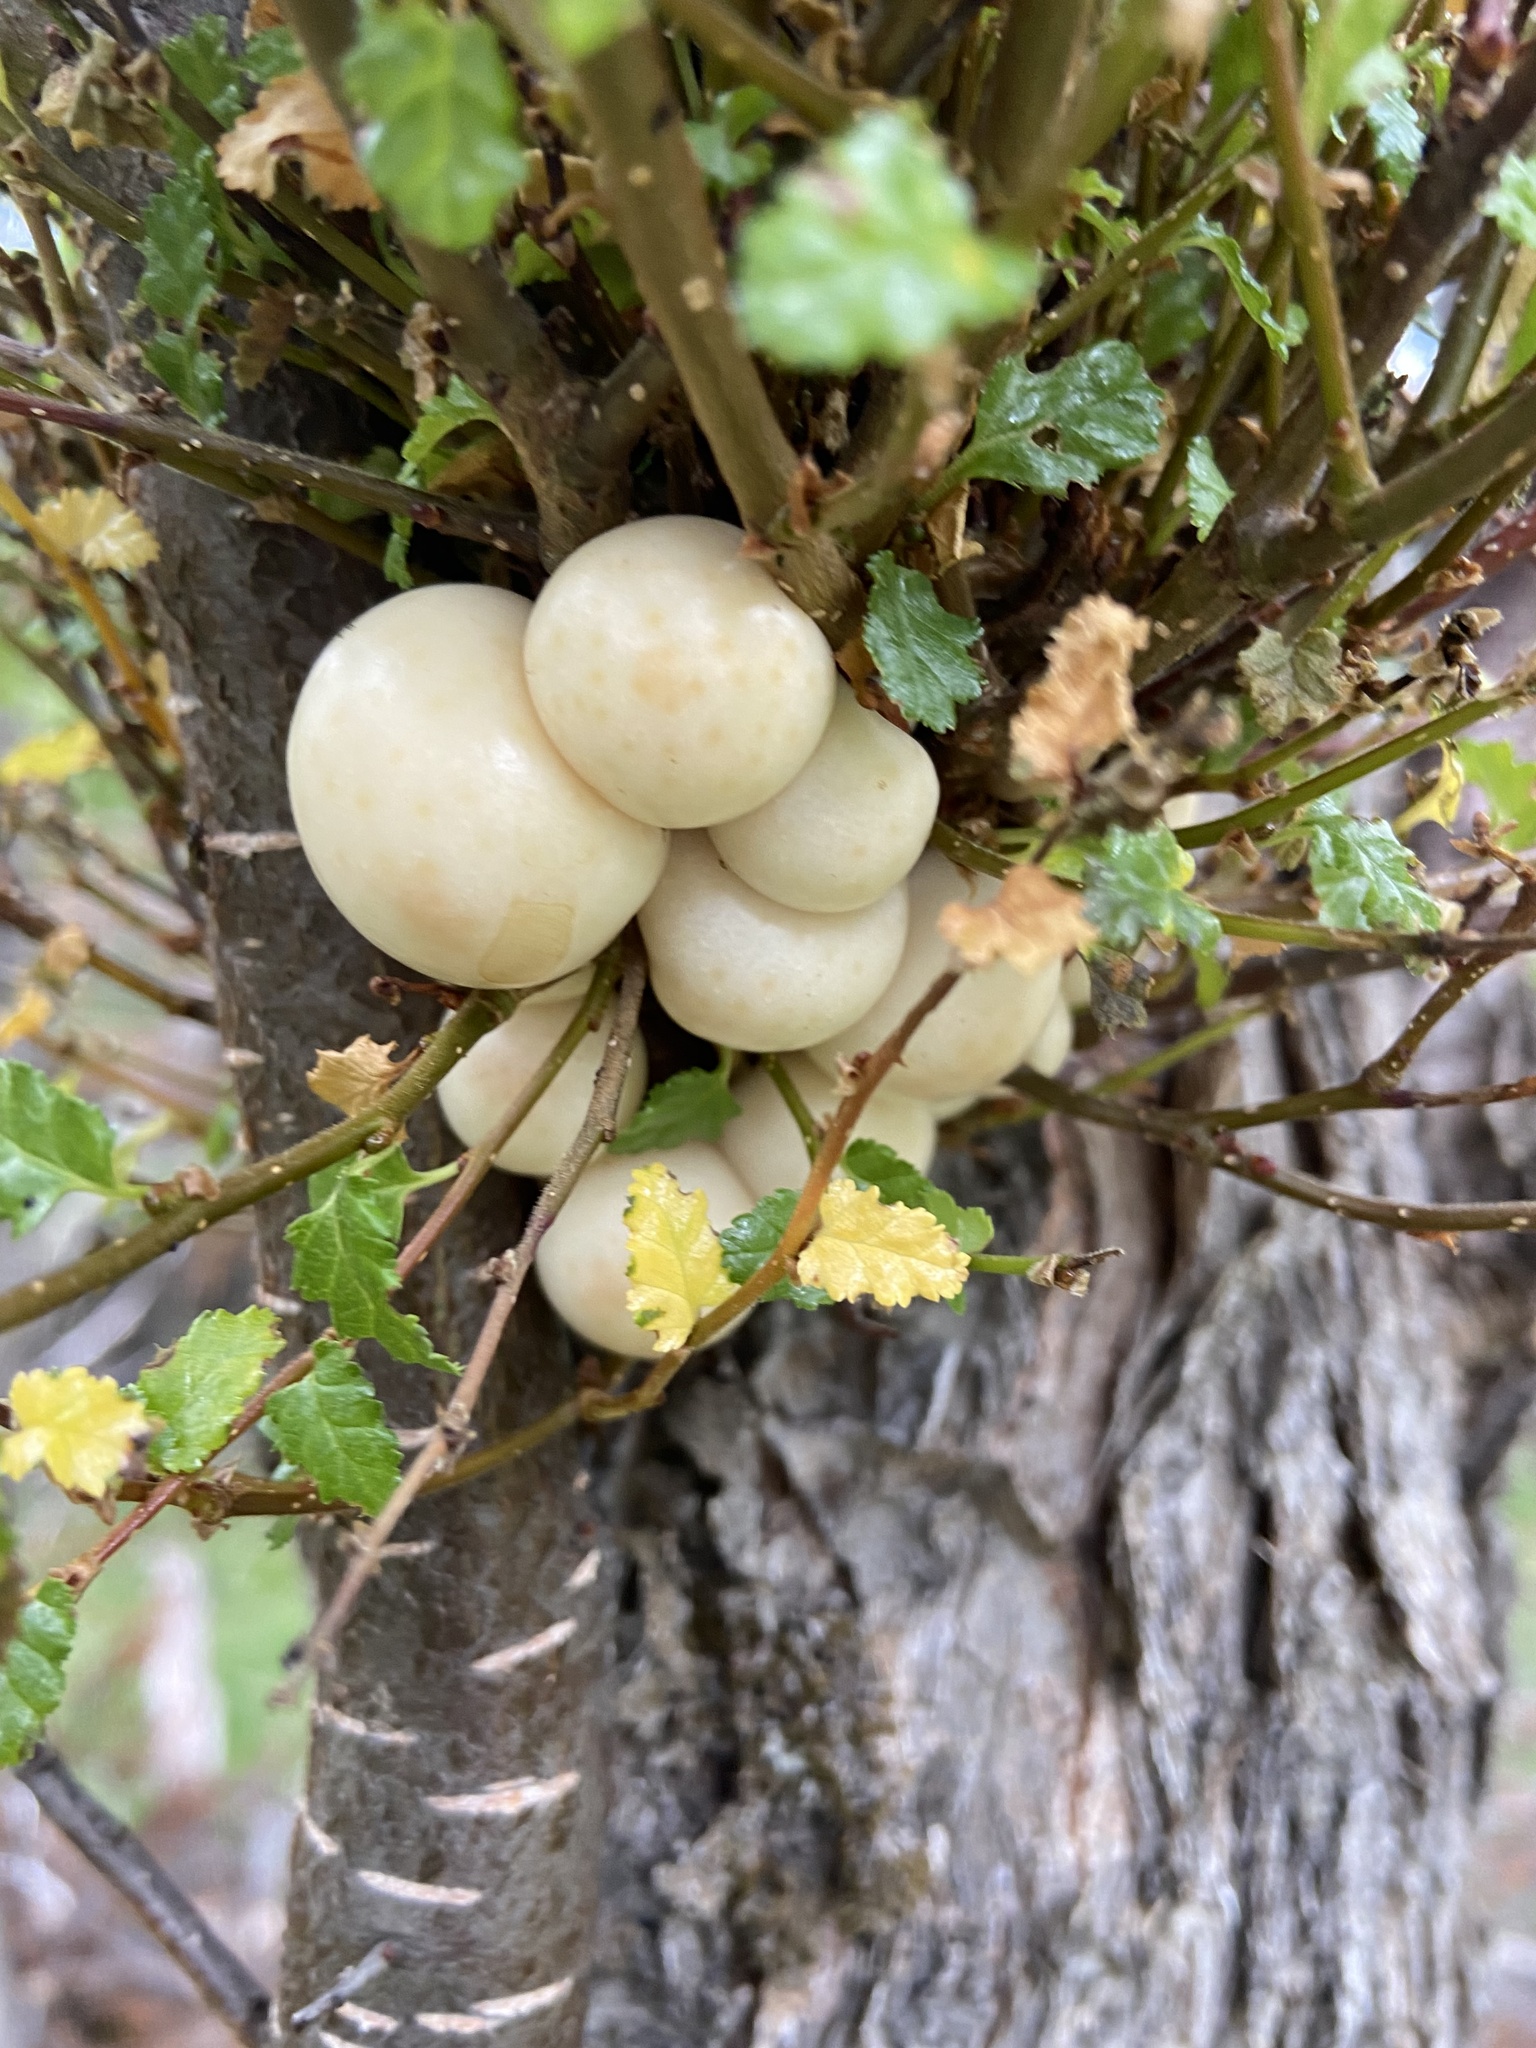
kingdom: Fungi
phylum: Ascomycota
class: Leotiomycetes
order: Cyttariales
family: Cyttariaceae
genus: Cyttaria
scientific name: Cyttaria darwinii
